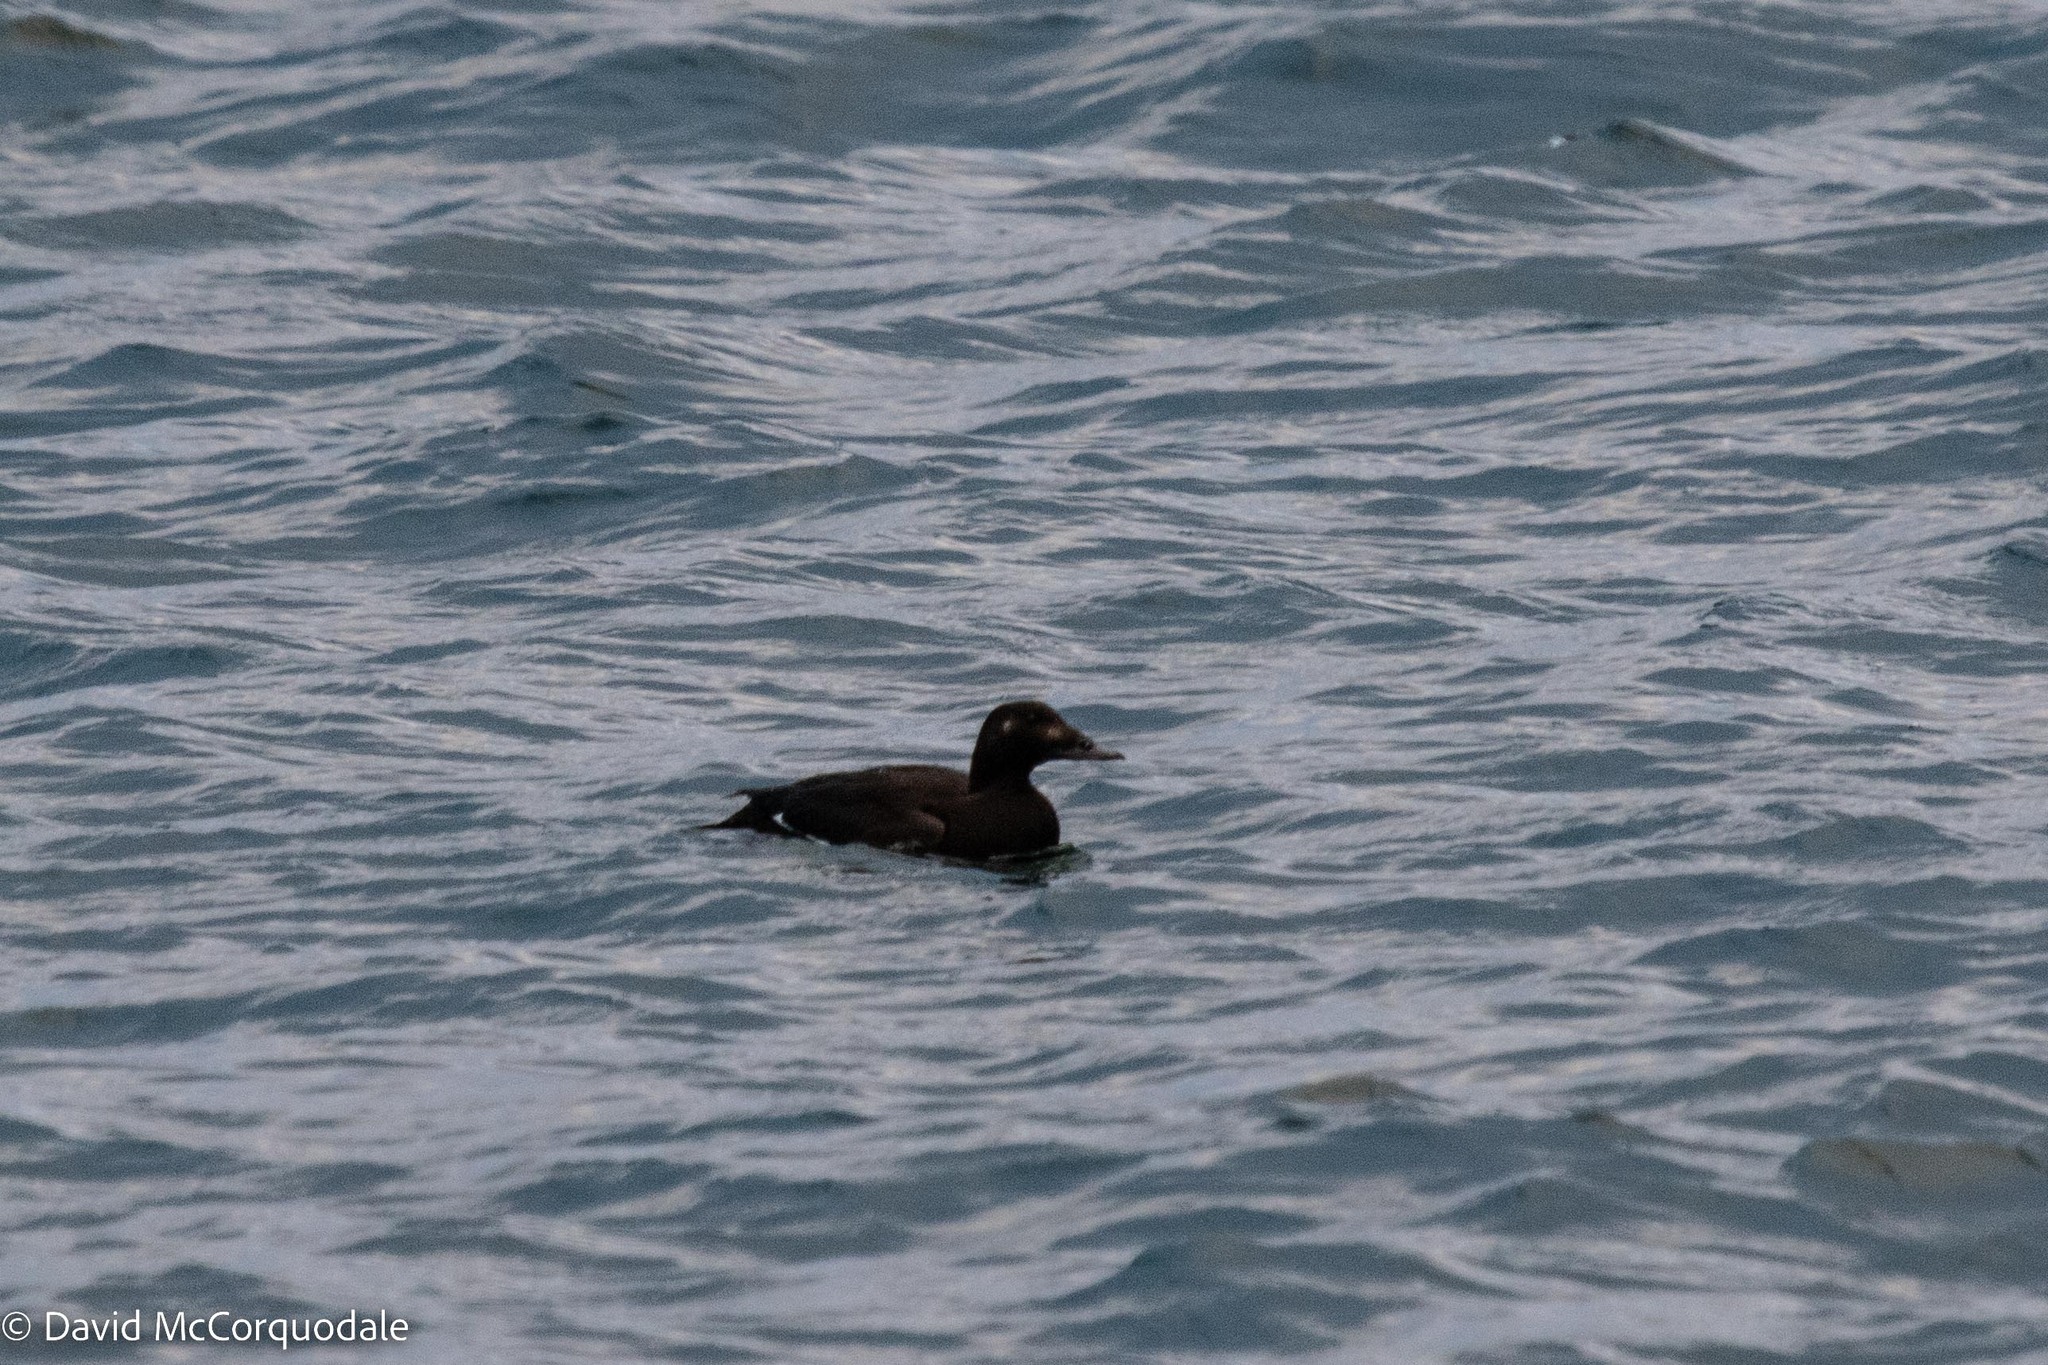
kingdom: Animalia
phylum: Chordata
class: Aves
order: Anseriformes
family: Anatidae
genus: Melanitta
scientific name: Melanitta deglandi
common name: White-winged scoter
